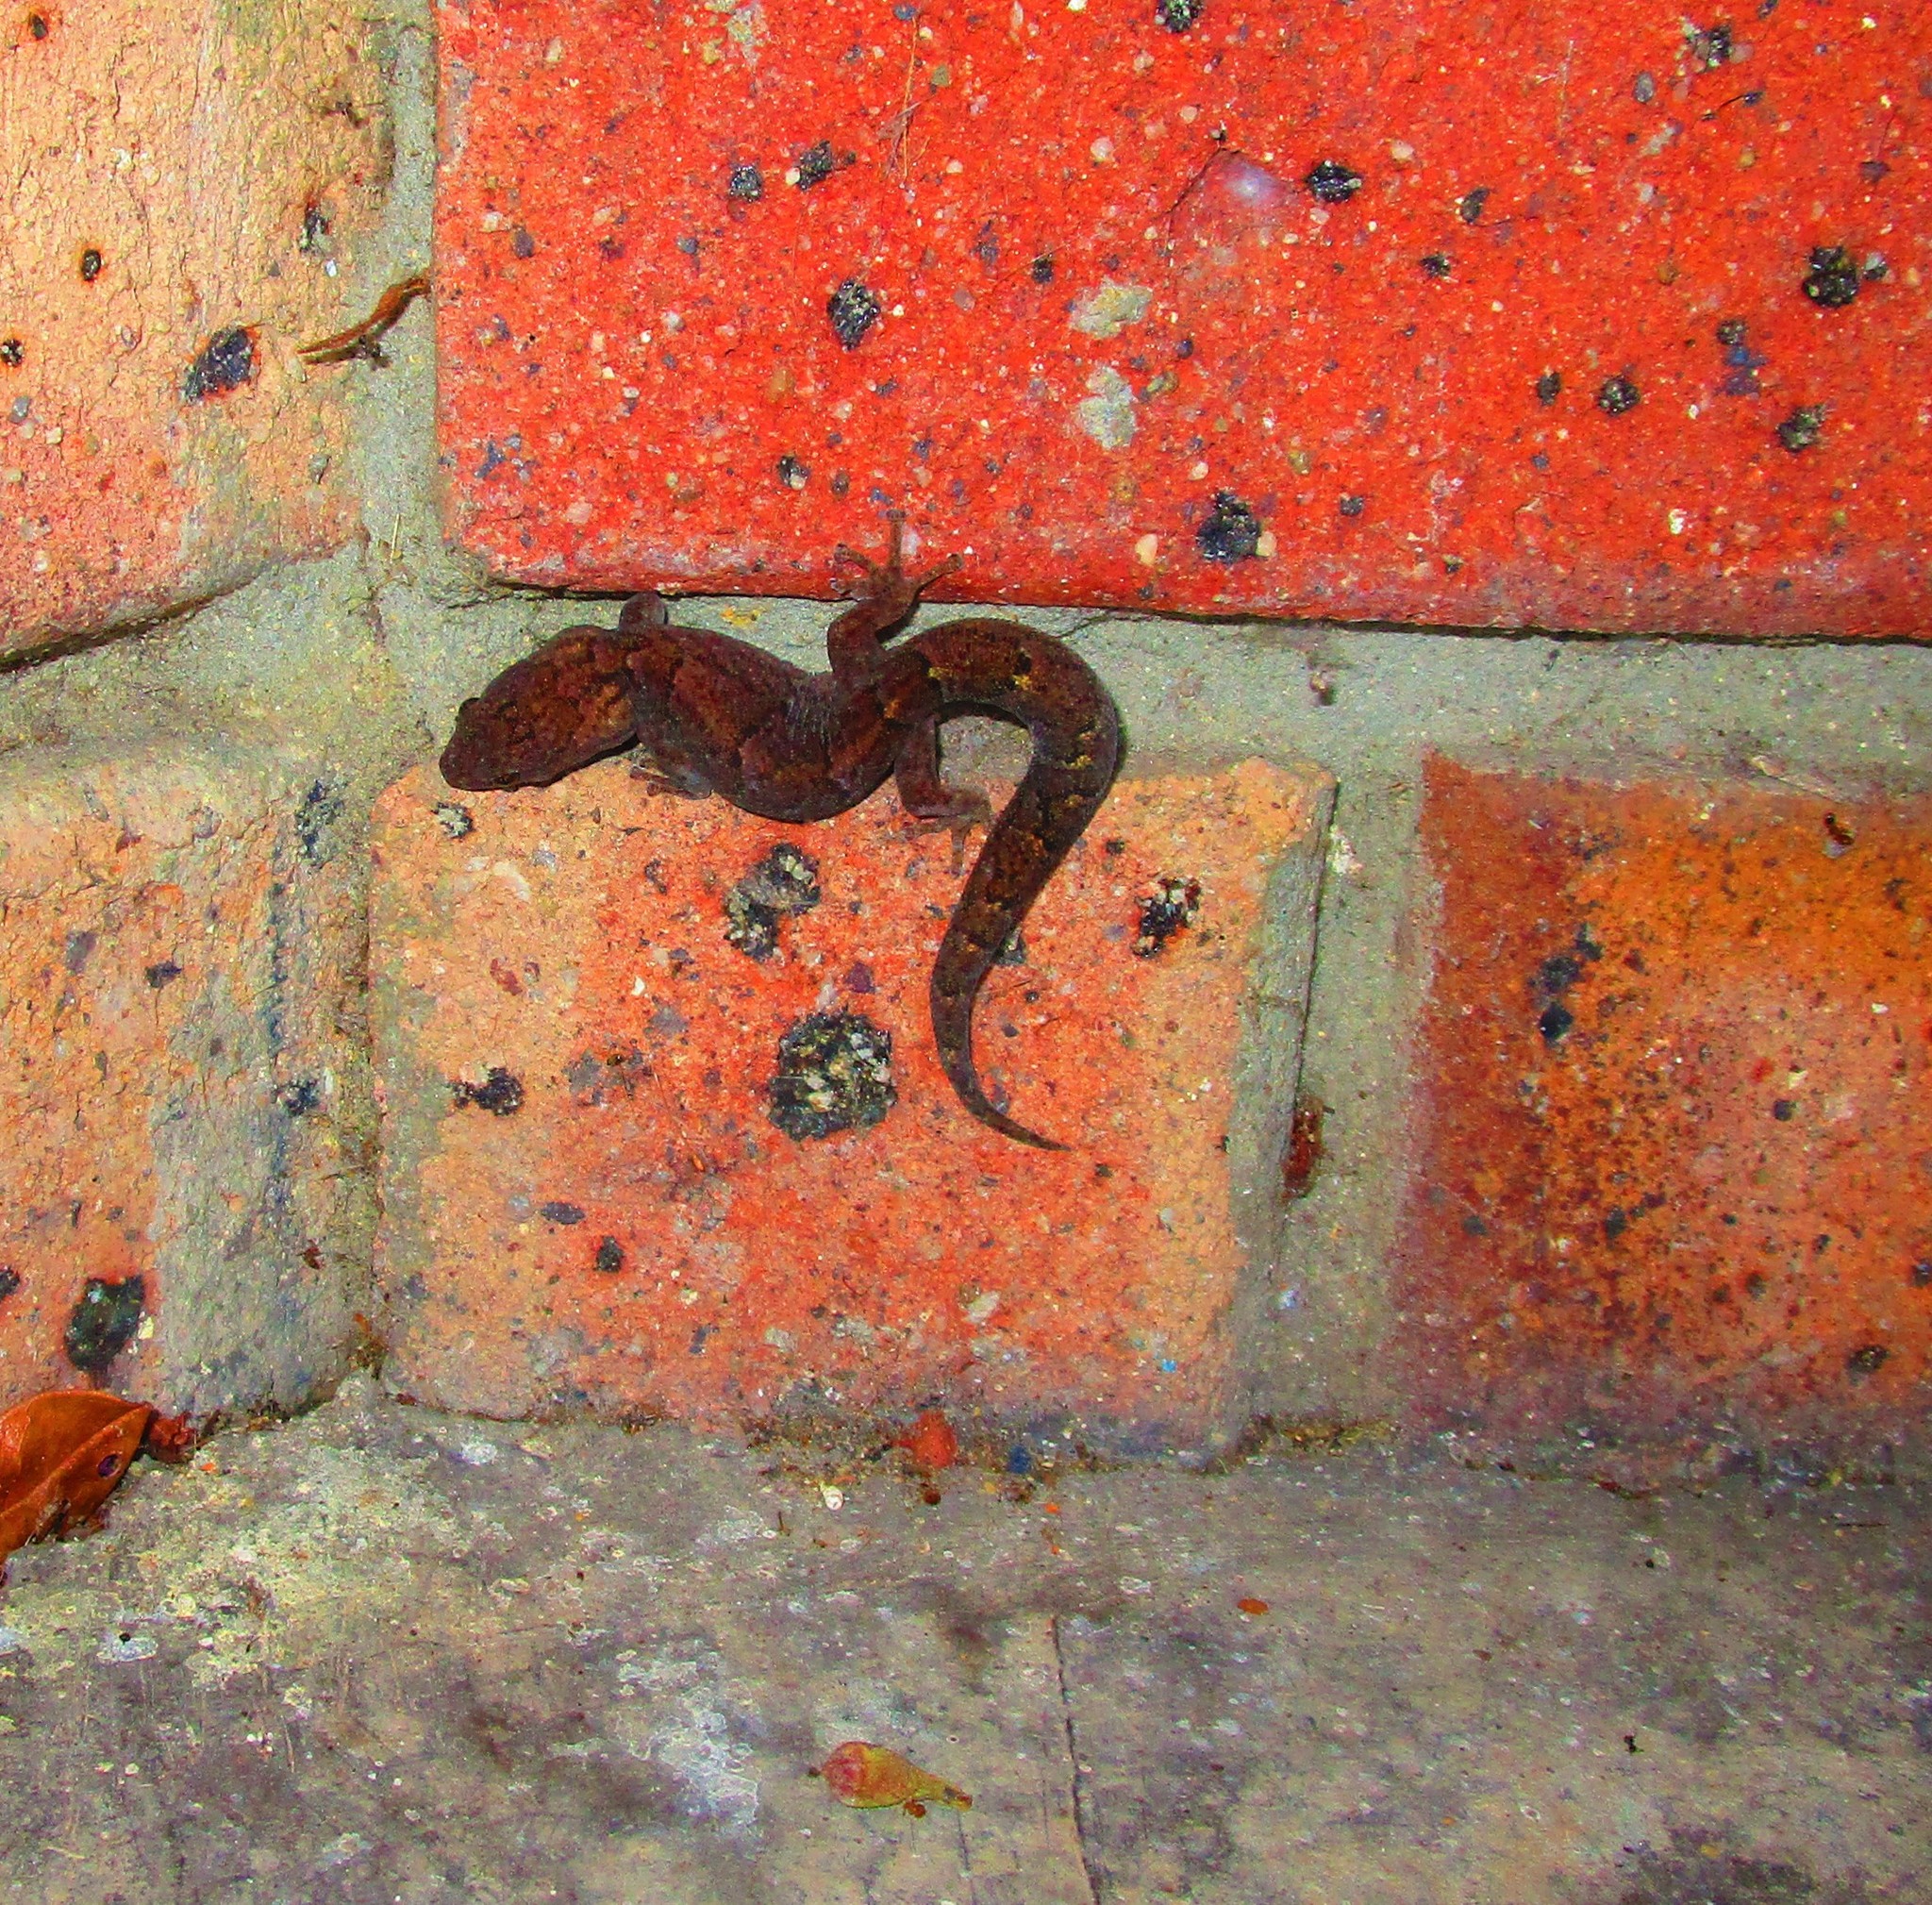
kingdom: Animalia
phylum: Chordata
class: Squamata
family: Gekkonidae
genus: Christinus
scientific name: Christinus marmoratus
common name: Marbled gecko
